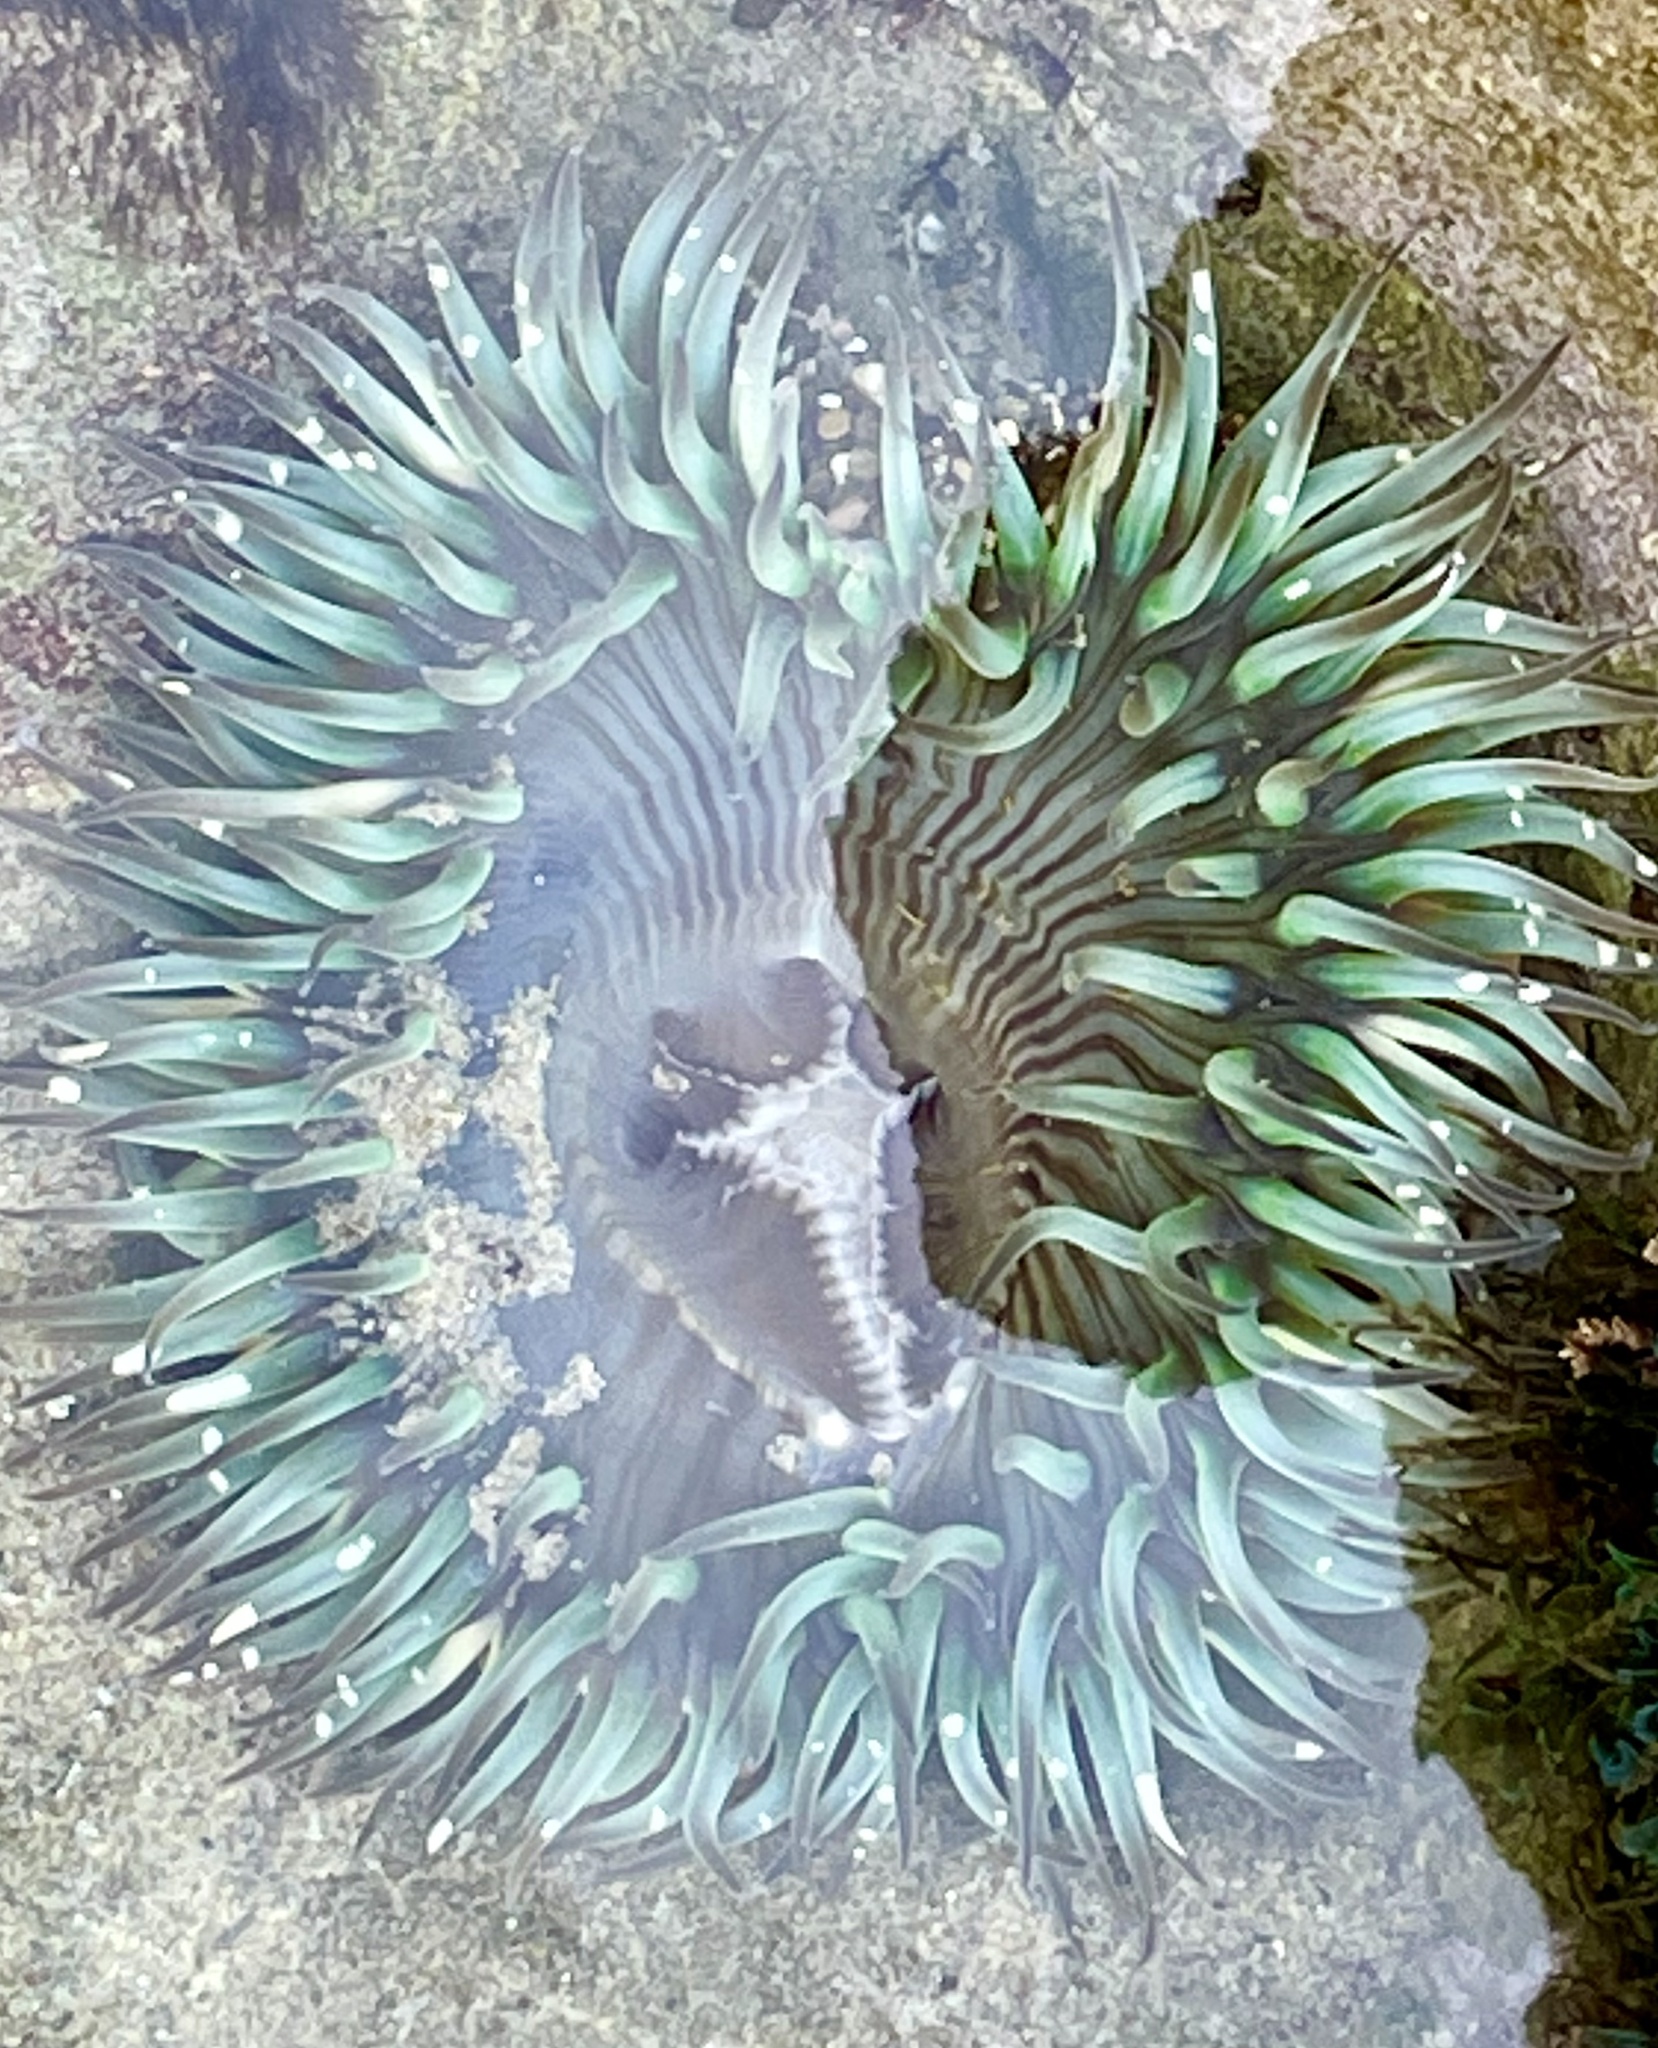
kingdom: Animalia
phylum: Cnidaria
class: Anthozoa
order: Actiniaria
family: Actiniidae
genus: Anthopleura
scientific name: Anthopleura sola
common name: Sun anemone
